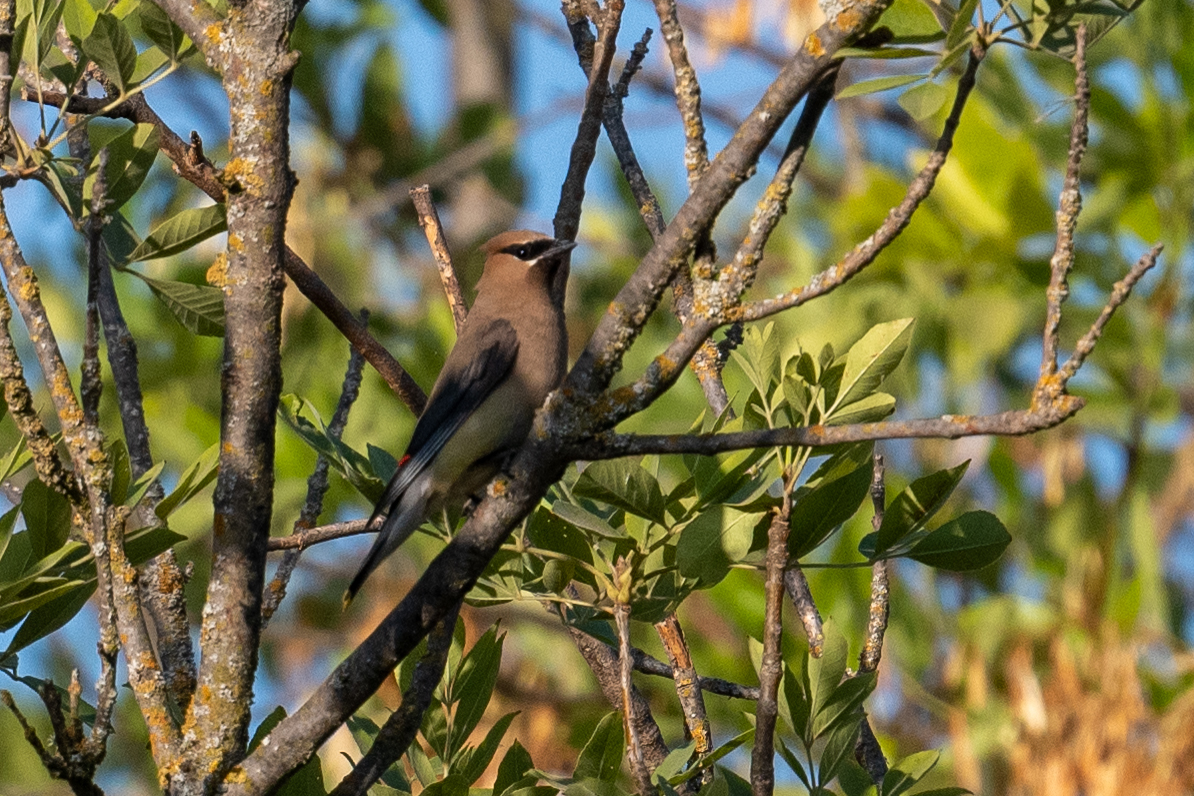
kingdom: Animalia
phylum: Chordata
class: Aves
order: Passeriformes
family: Bombycillidae
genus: Bombycilla
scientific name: Bombycilla cedrorum
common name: Cedar waxwing
